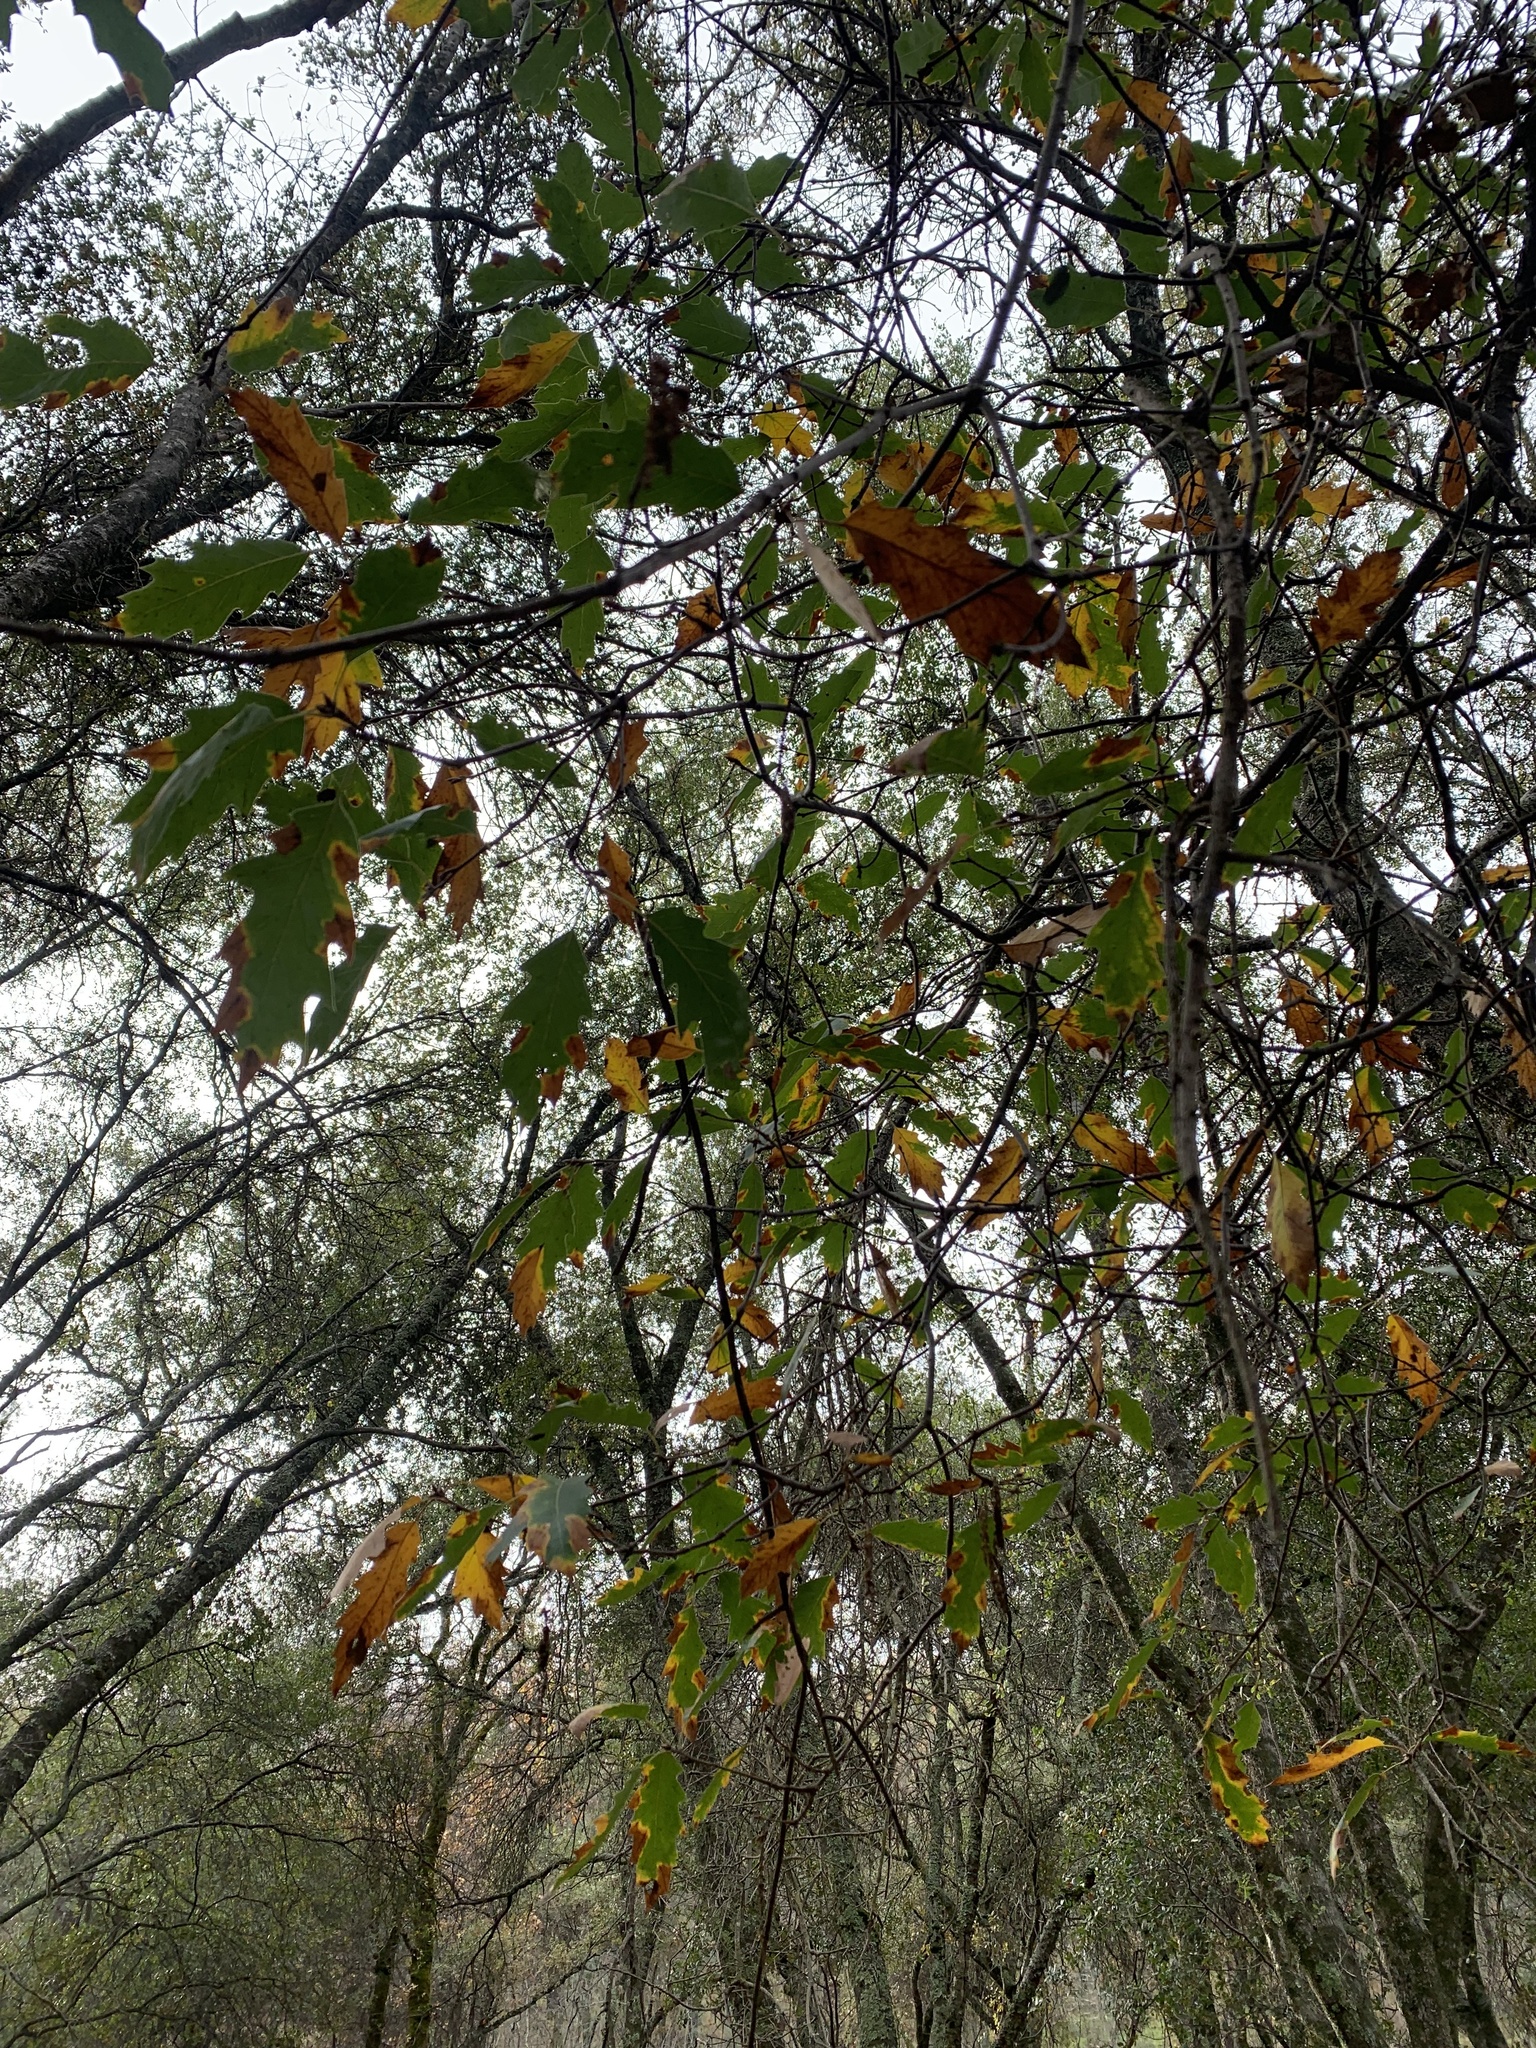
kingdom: Plantae
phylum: Tracheophyta
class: Magnoliopsida
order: Fagales
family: Fagaceae
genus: Quercus
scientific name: Quercus morehus
